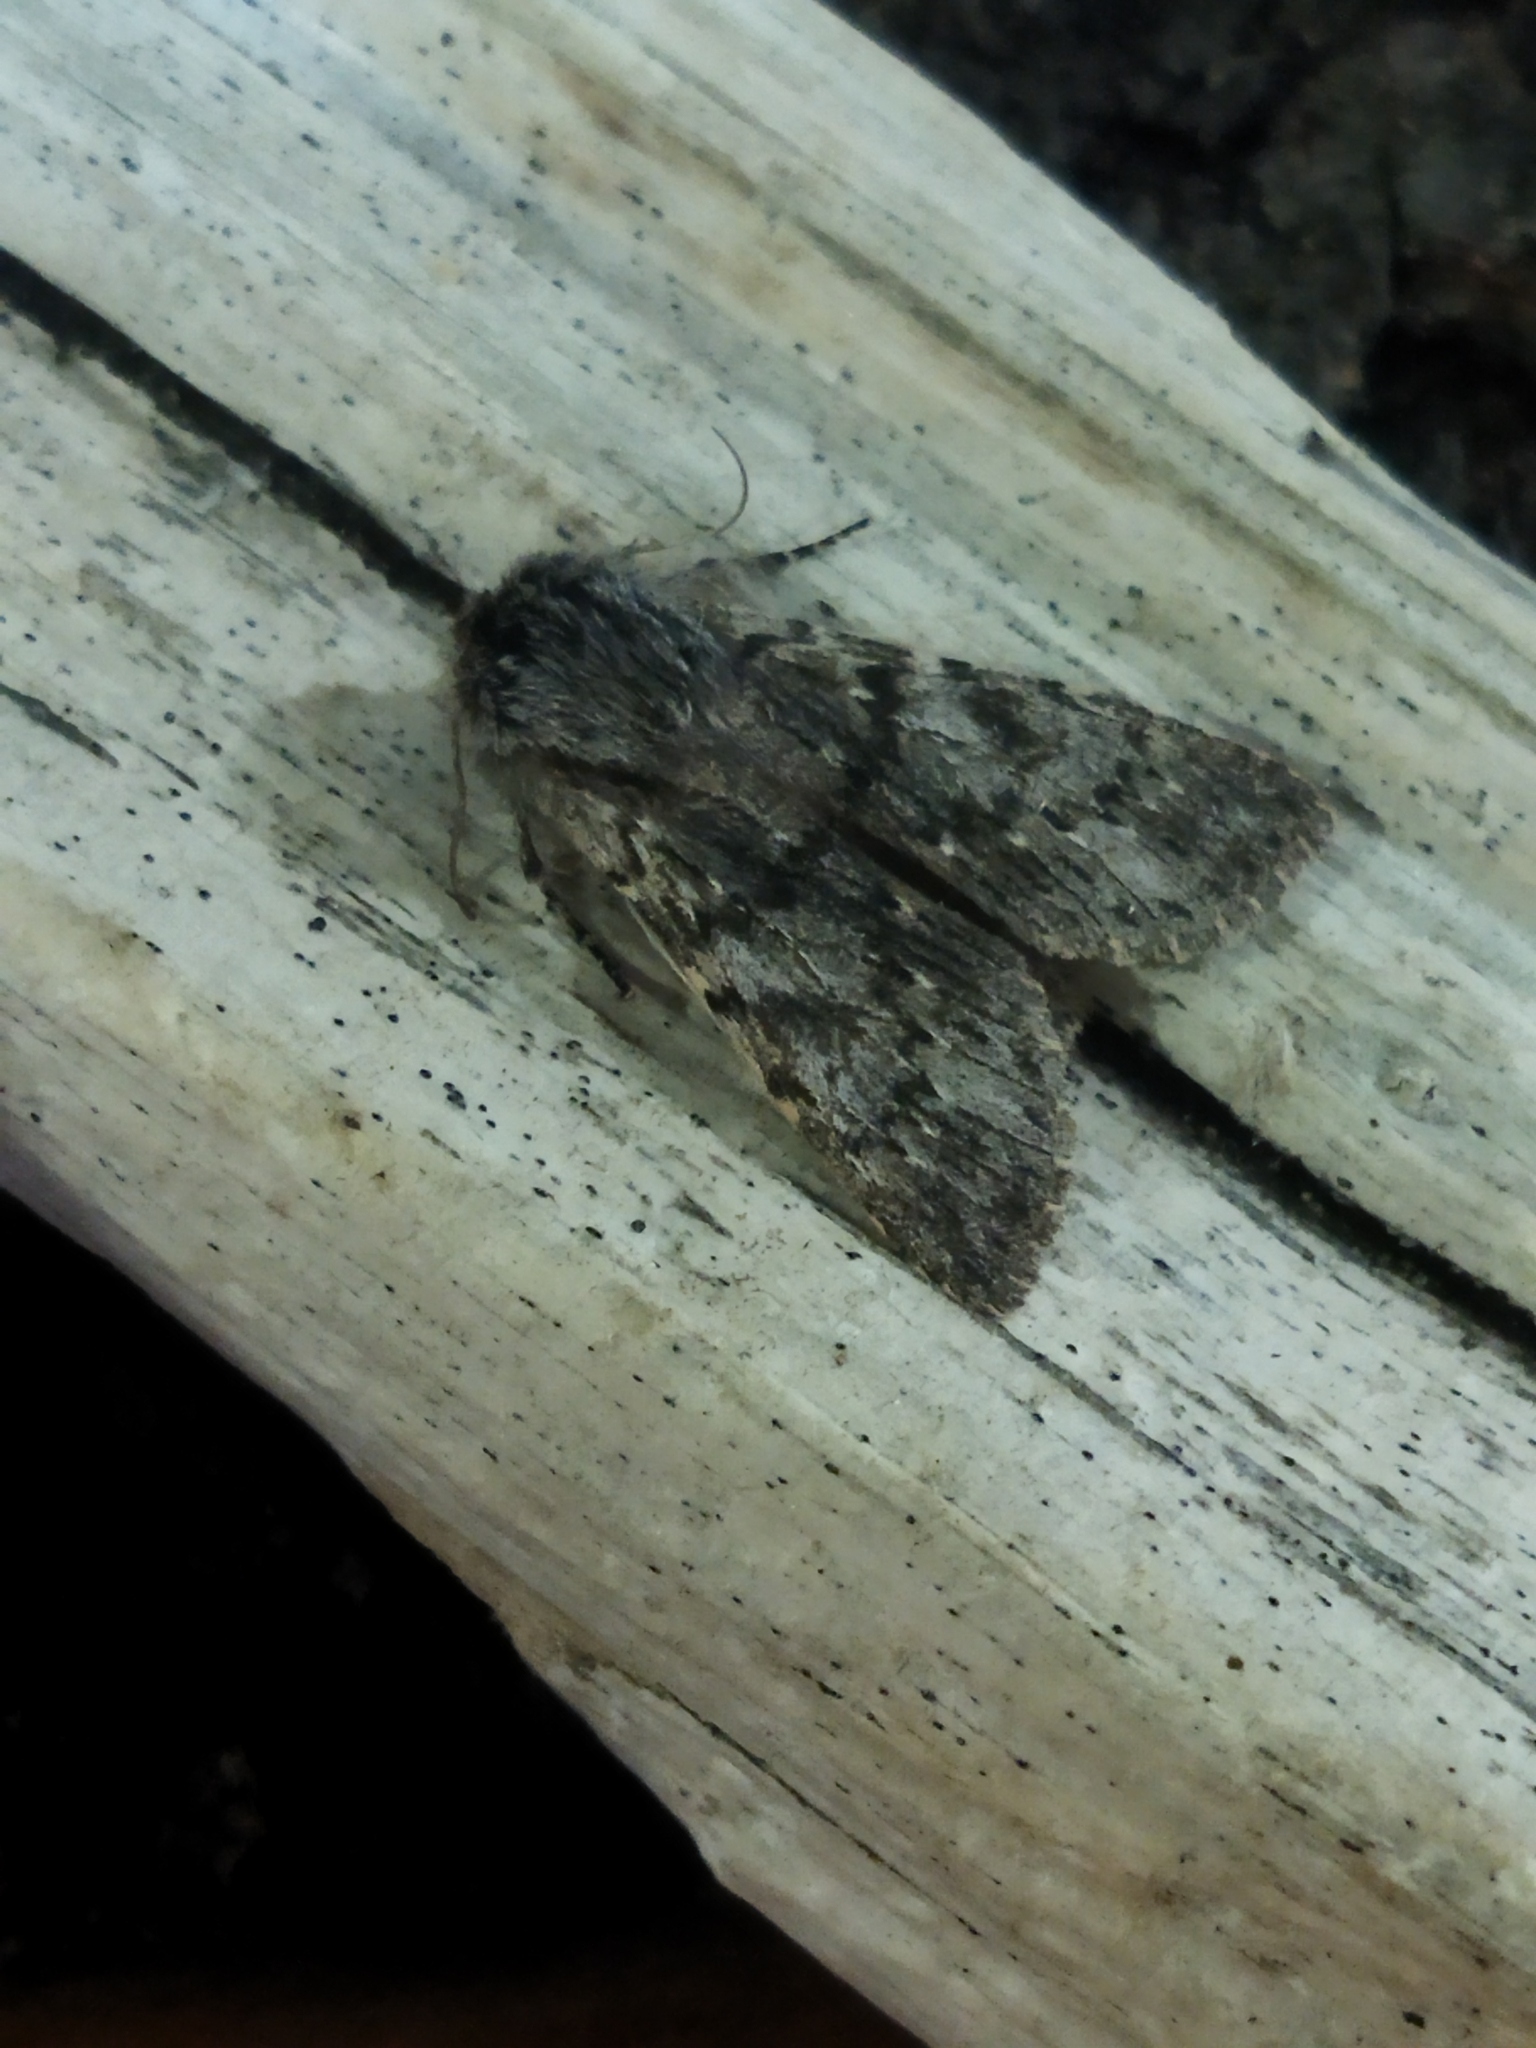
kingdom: Animalia
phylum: Arthropoda
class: Insecta
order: Lepidoptera
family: Notodontidae
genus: Dicranura
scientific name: Dicranura ulmi
